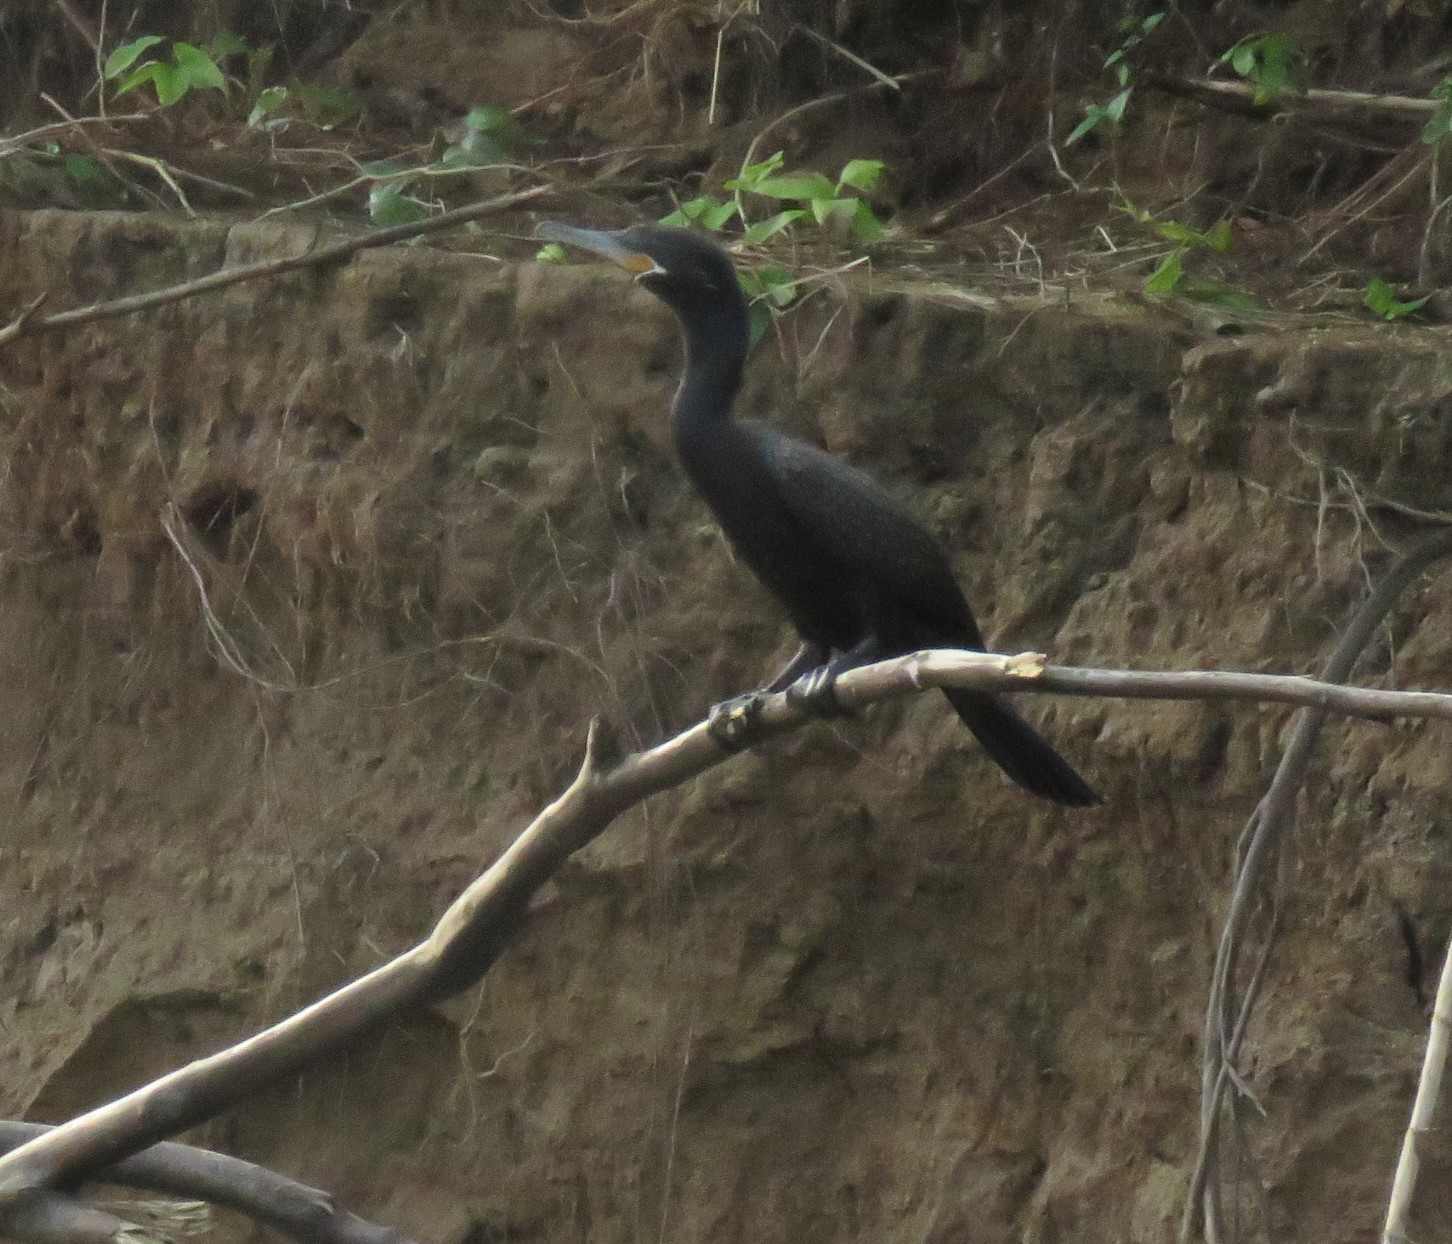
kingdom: Animalia
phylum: Chordata
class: Aves
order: Suliformes
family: Phalacrocoracidae
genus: Phalacrocorax
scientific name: Phalacrocorax brasilianus
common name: Neotropic cormorant
